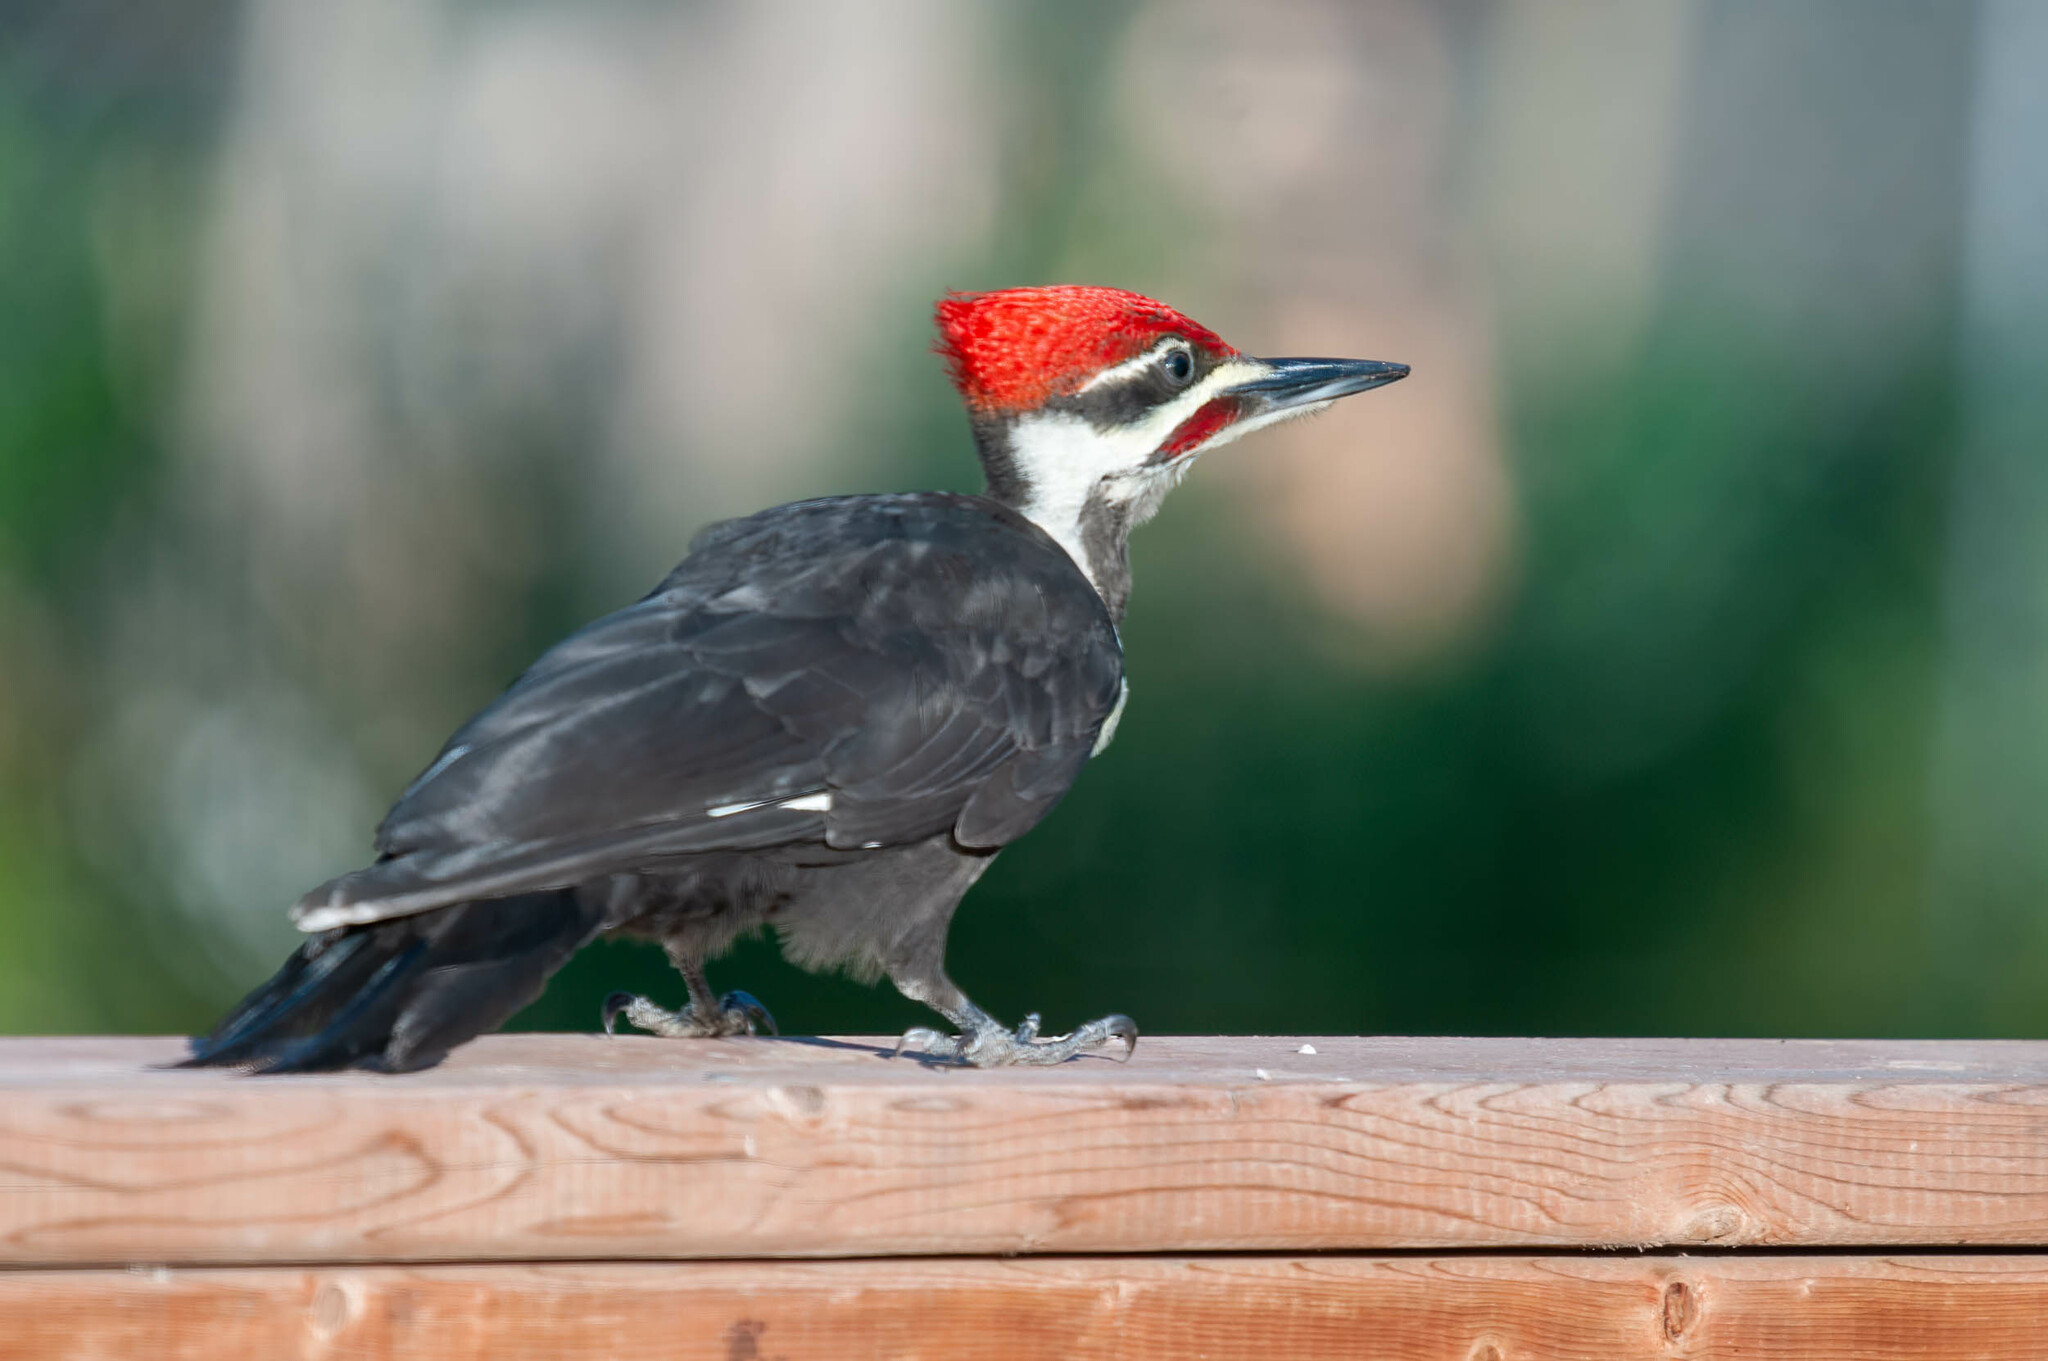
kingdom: Animalia
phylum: Chordata
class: Aves
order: Piciformes
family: Picidae
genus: Dryocopus
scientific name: Dryocopus pileatus
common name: Pileated woodpecker
